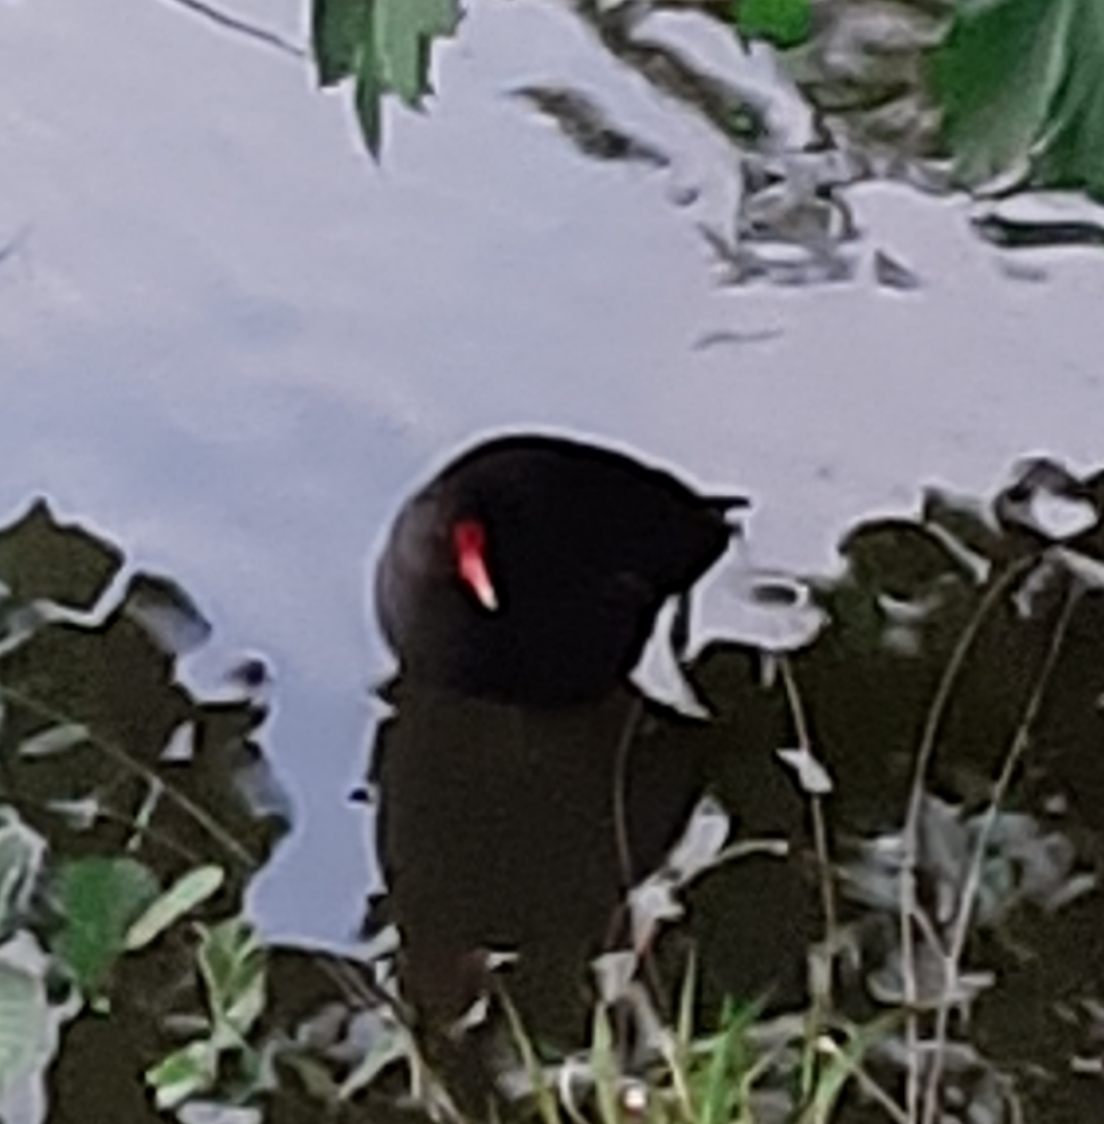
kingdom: Animalia
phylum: Chordata
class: Aves
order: Gruiformes
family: Rallidae
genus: Gallinula
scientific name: Gallinula chloropus
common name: Common moorhen
